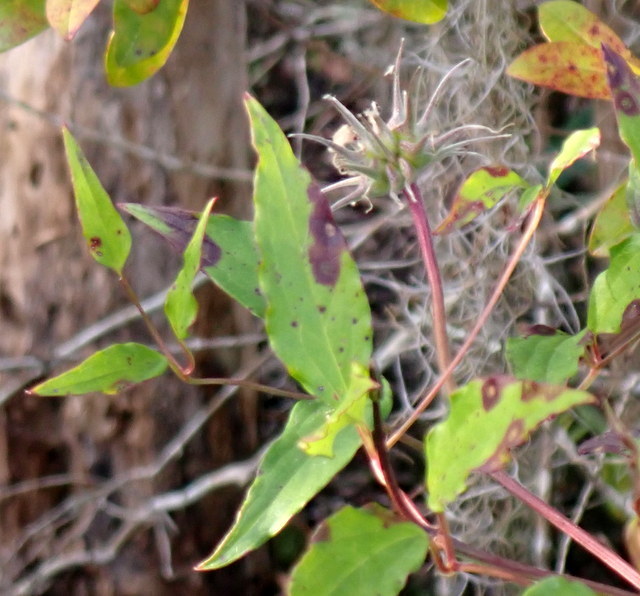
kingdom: Plantae
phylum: Tracheophyta
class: Magnoliopsida
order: Ranunculales
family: Ranunculaceae
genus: Clematis
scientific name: Clematis crispa
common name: Curly clematis
